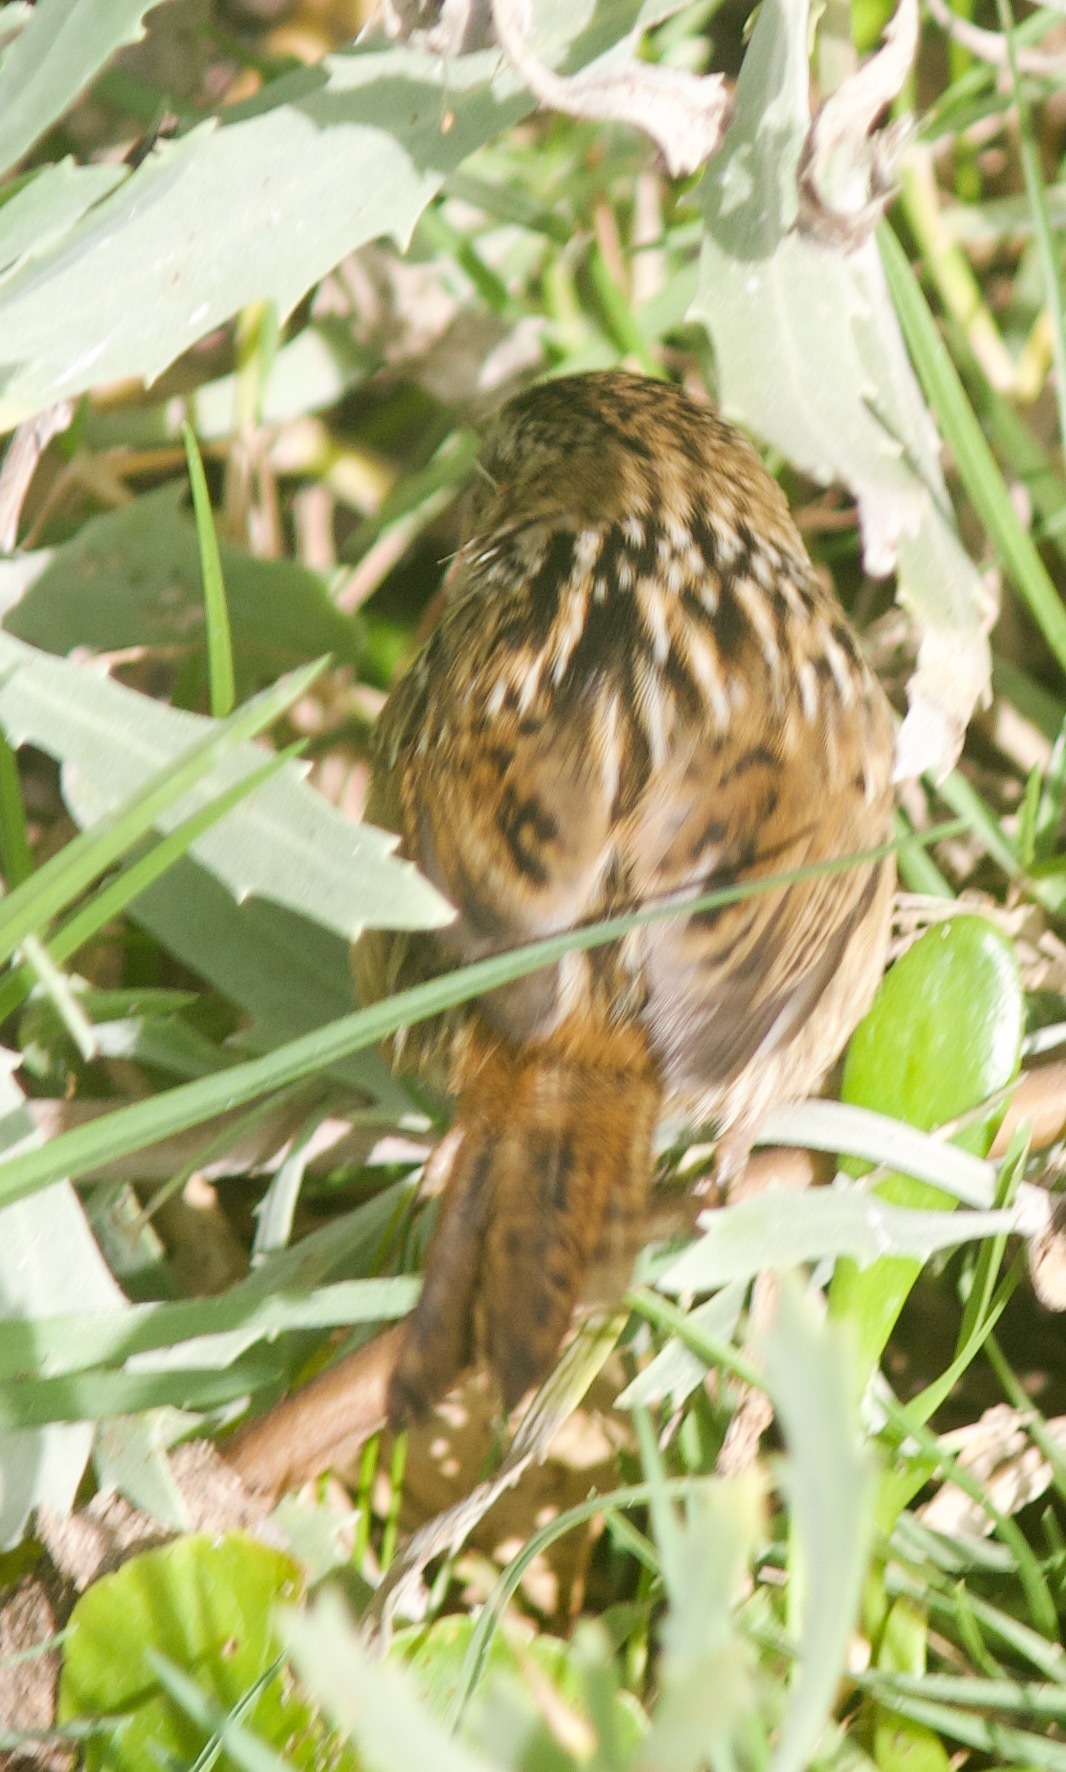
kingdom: Animalia
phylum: Chordata
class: Aves
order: Passeriformes
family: Troglodytidae
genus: Cistothorus
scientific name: Cistothorus platensis
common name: Sedge wren
